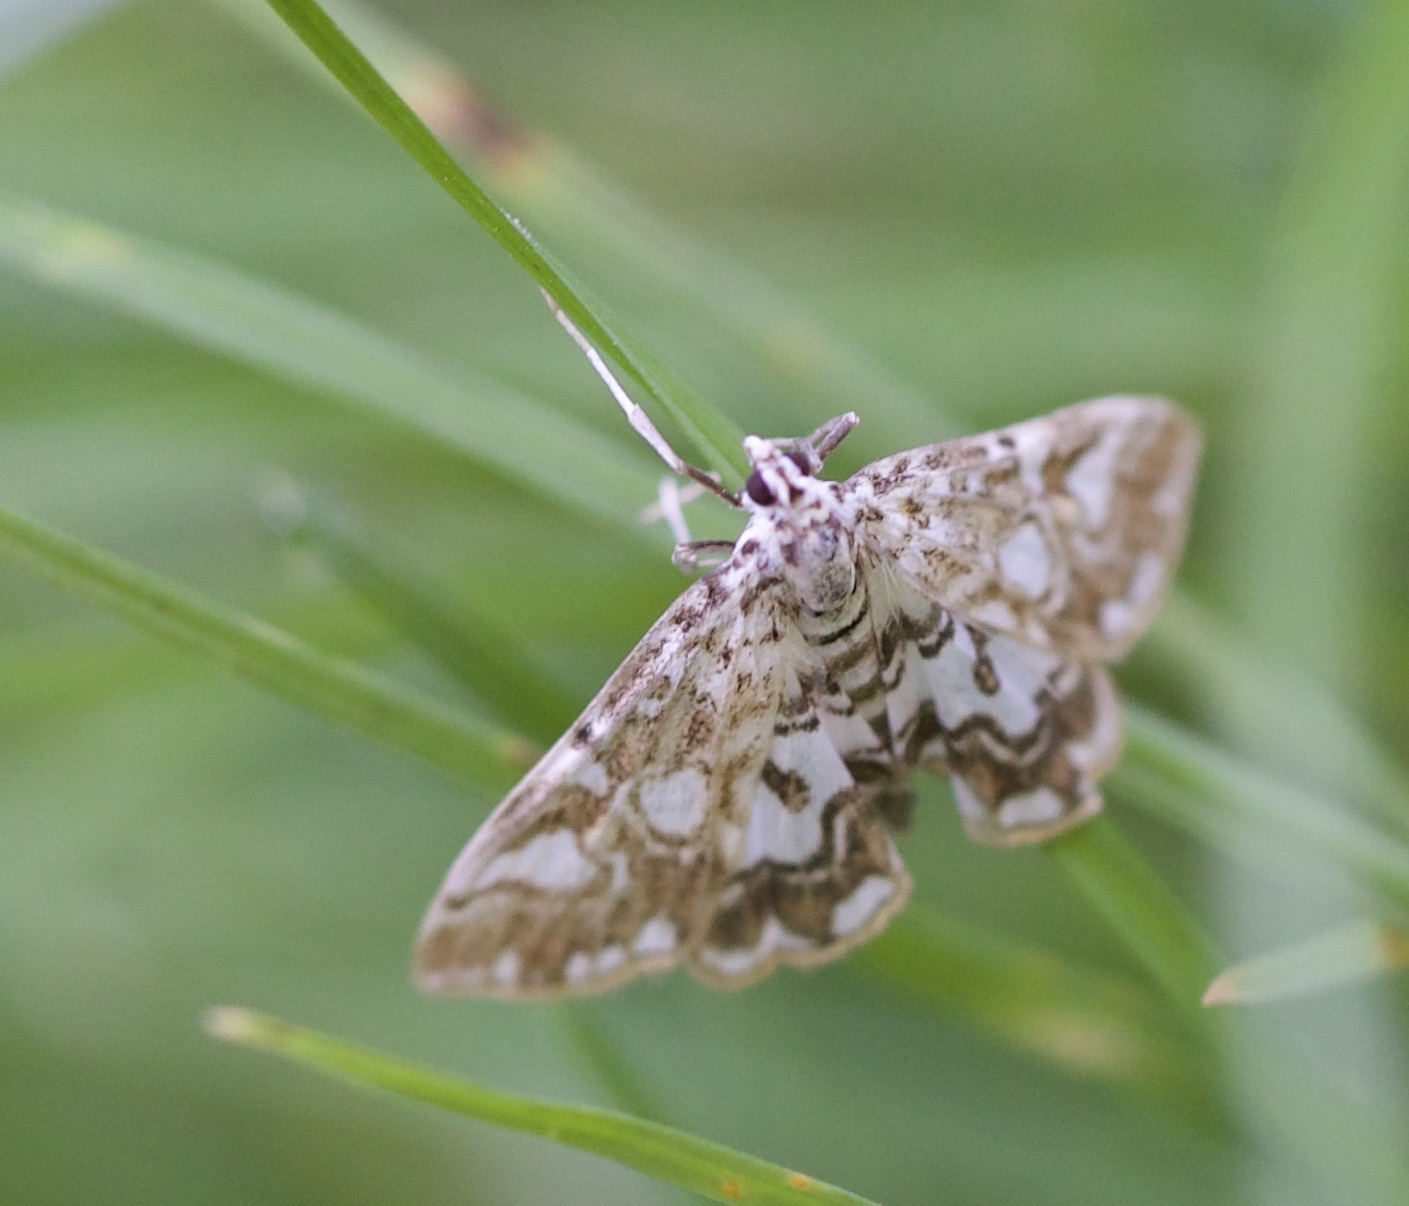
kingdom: Animalia
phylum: Arthropoda
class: Insecta
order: Lepidoptera
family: Crambidae
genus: Elophila
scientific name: Elophila nymphaeata
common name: Brown china-mark
